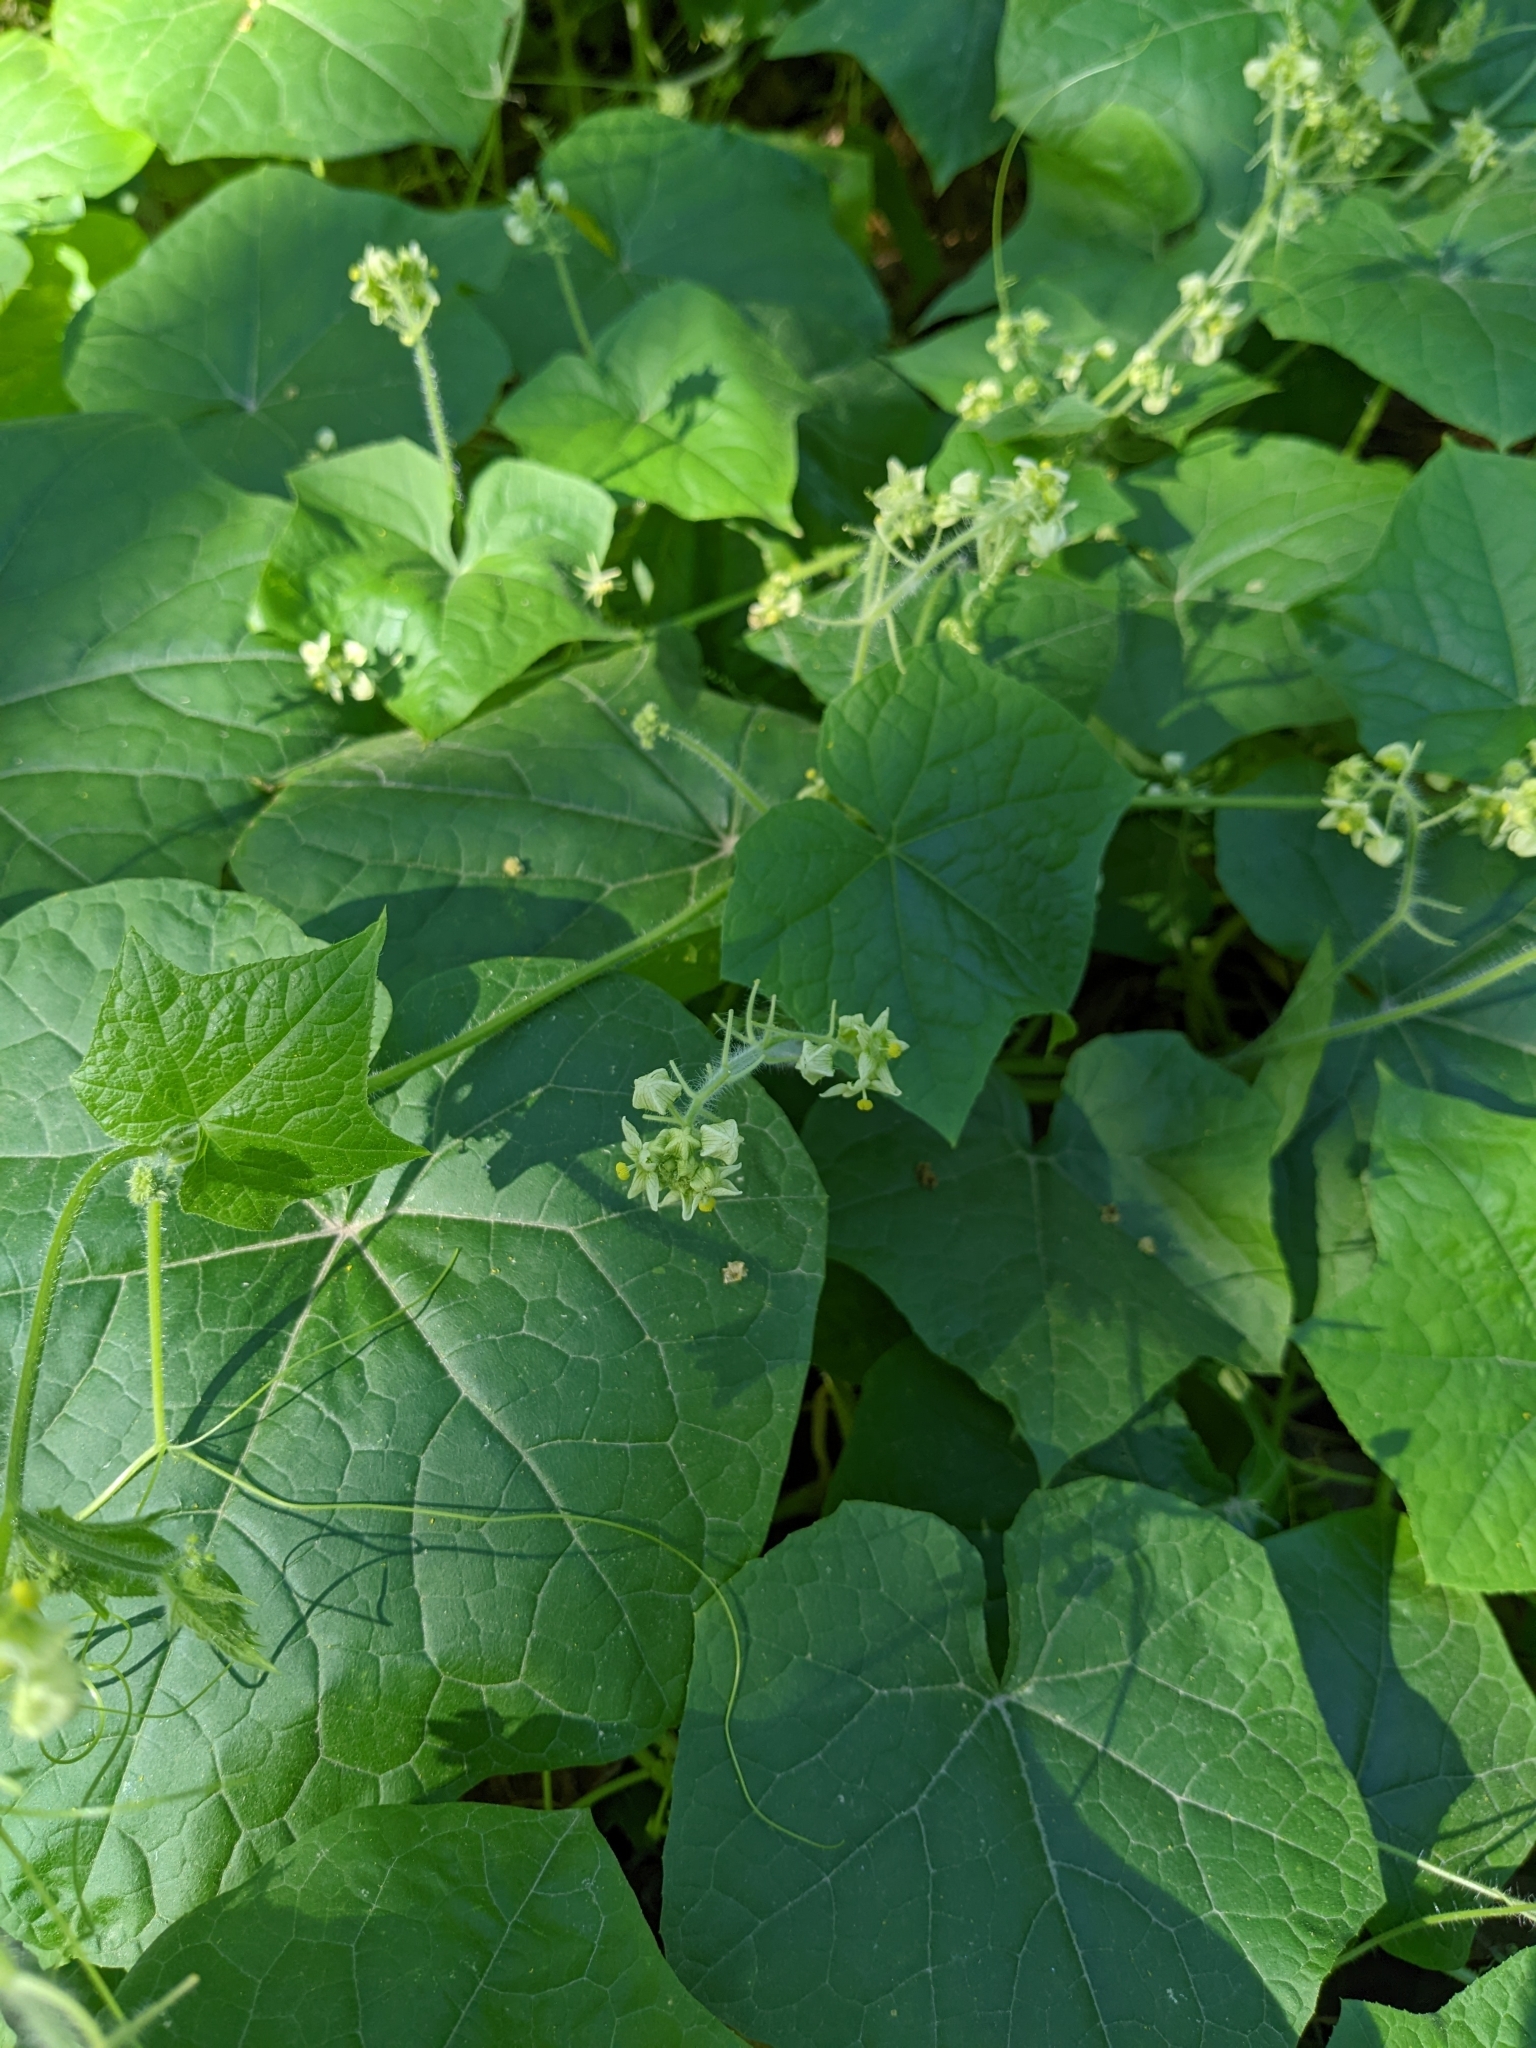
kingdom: Plantae
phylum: Tracheophyta
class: Magnoliopsida
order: Cucurbitales
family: Cucurbitaceae
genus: Sicyos
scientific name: Sicyos angulatus
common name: Angled burr cucumber
